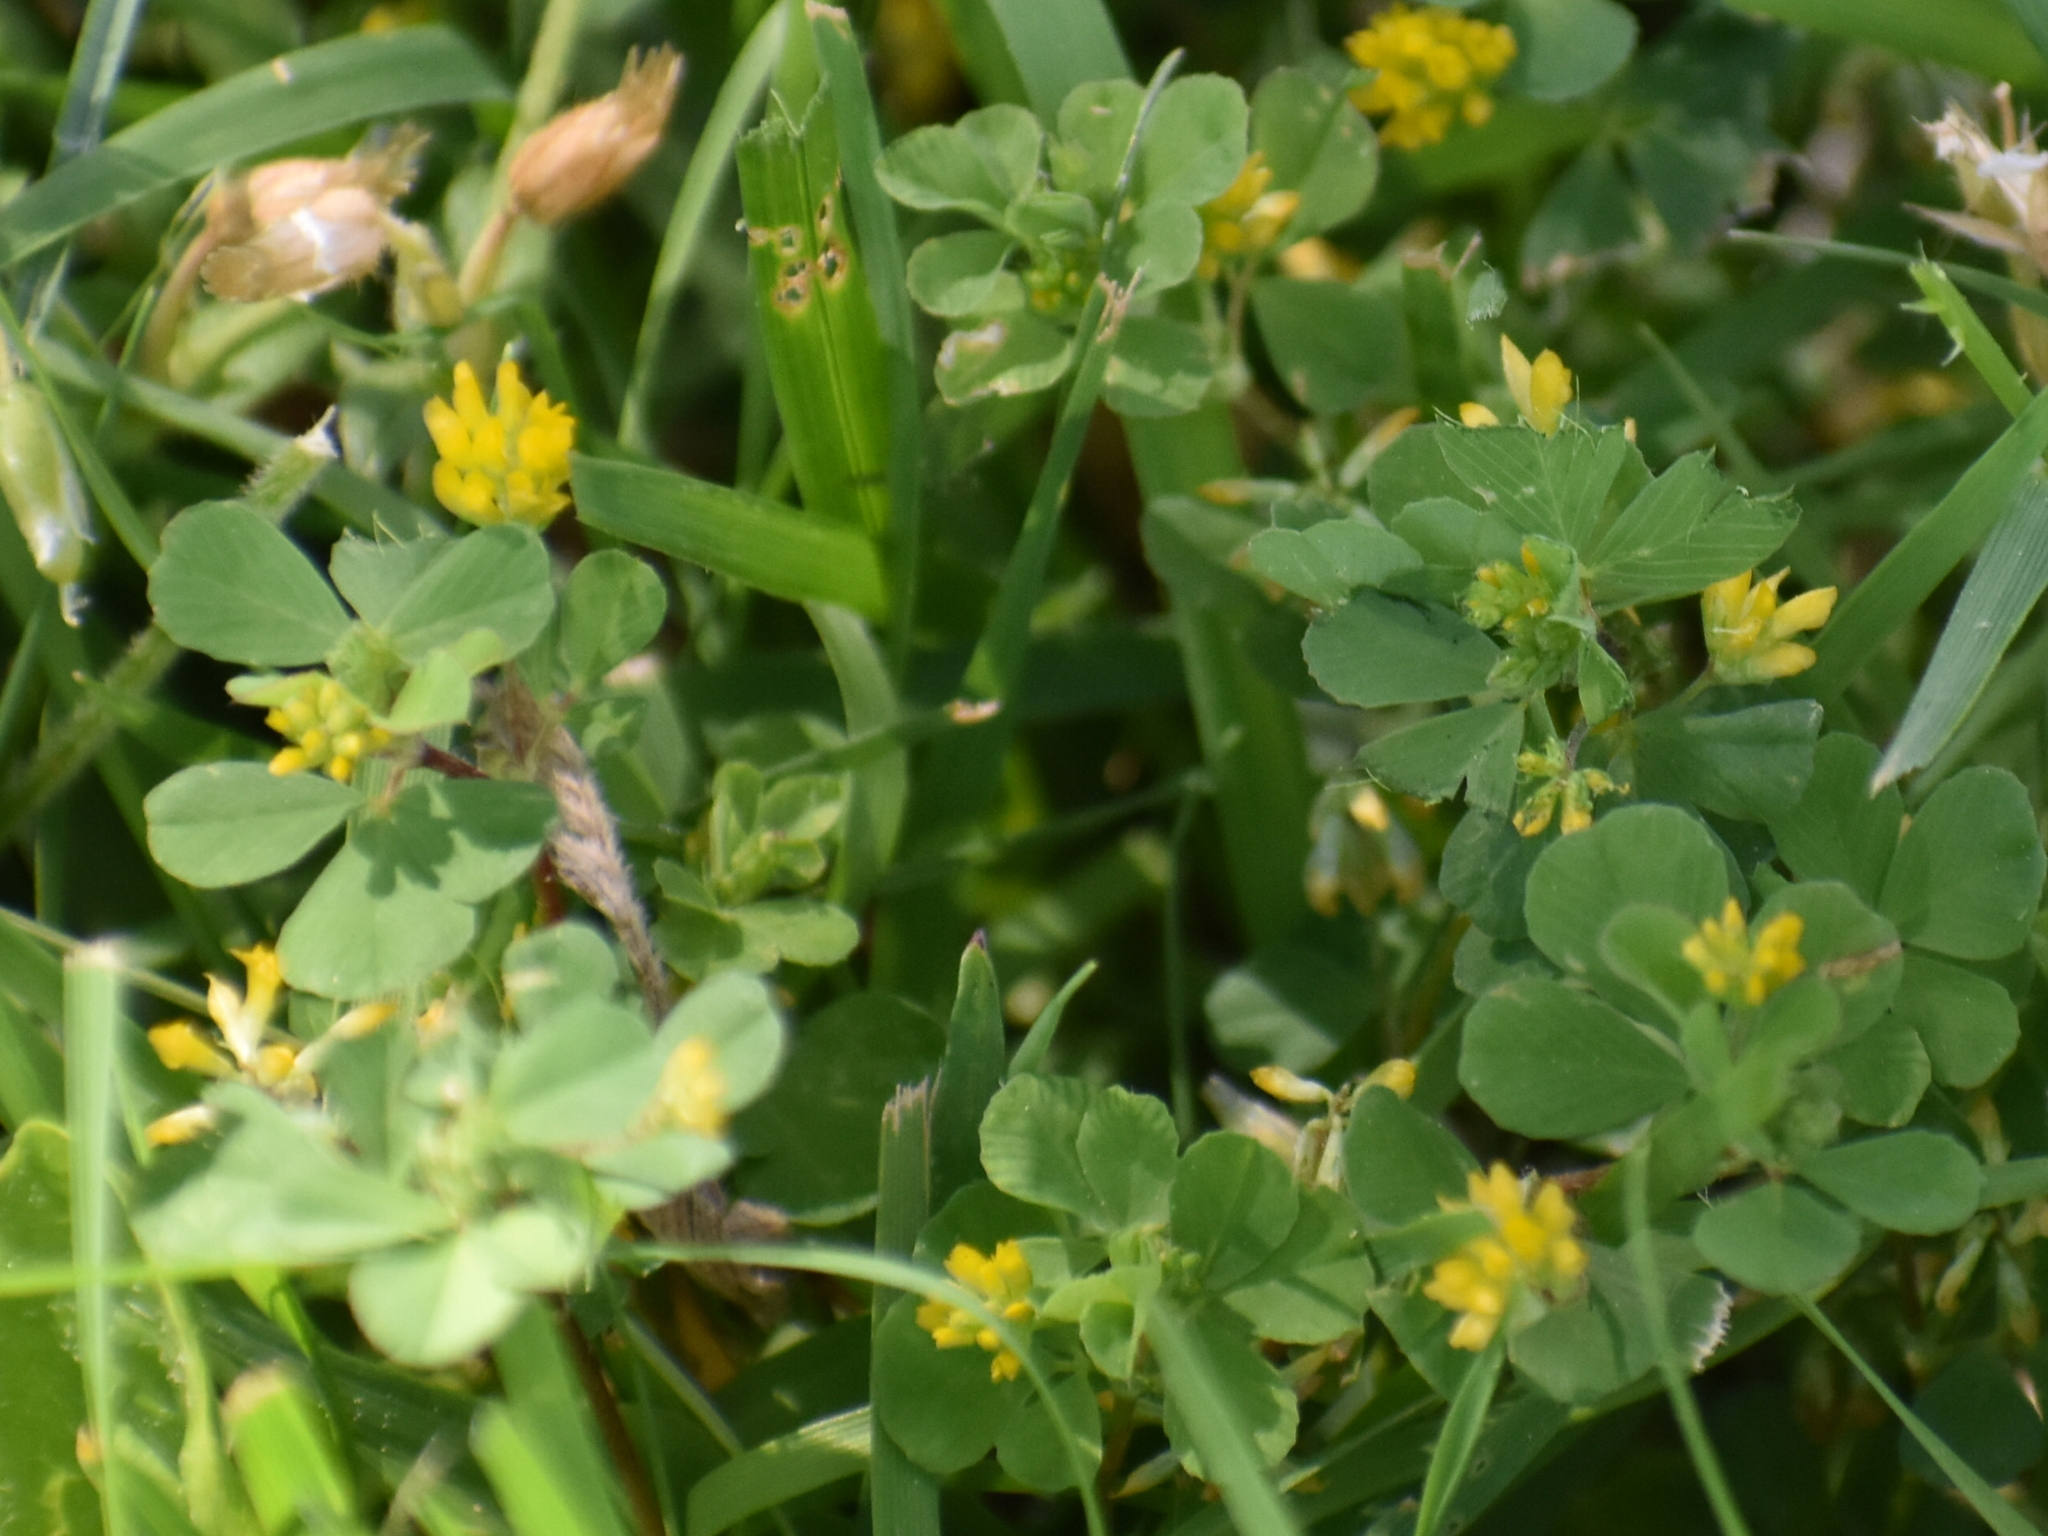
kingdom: Plantae
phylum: Tracheophyta
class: Magnoliopsida
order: Fabales
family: Fabaceae
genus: Trifolium
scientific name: Trifolium dubium
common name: Suckling clover
